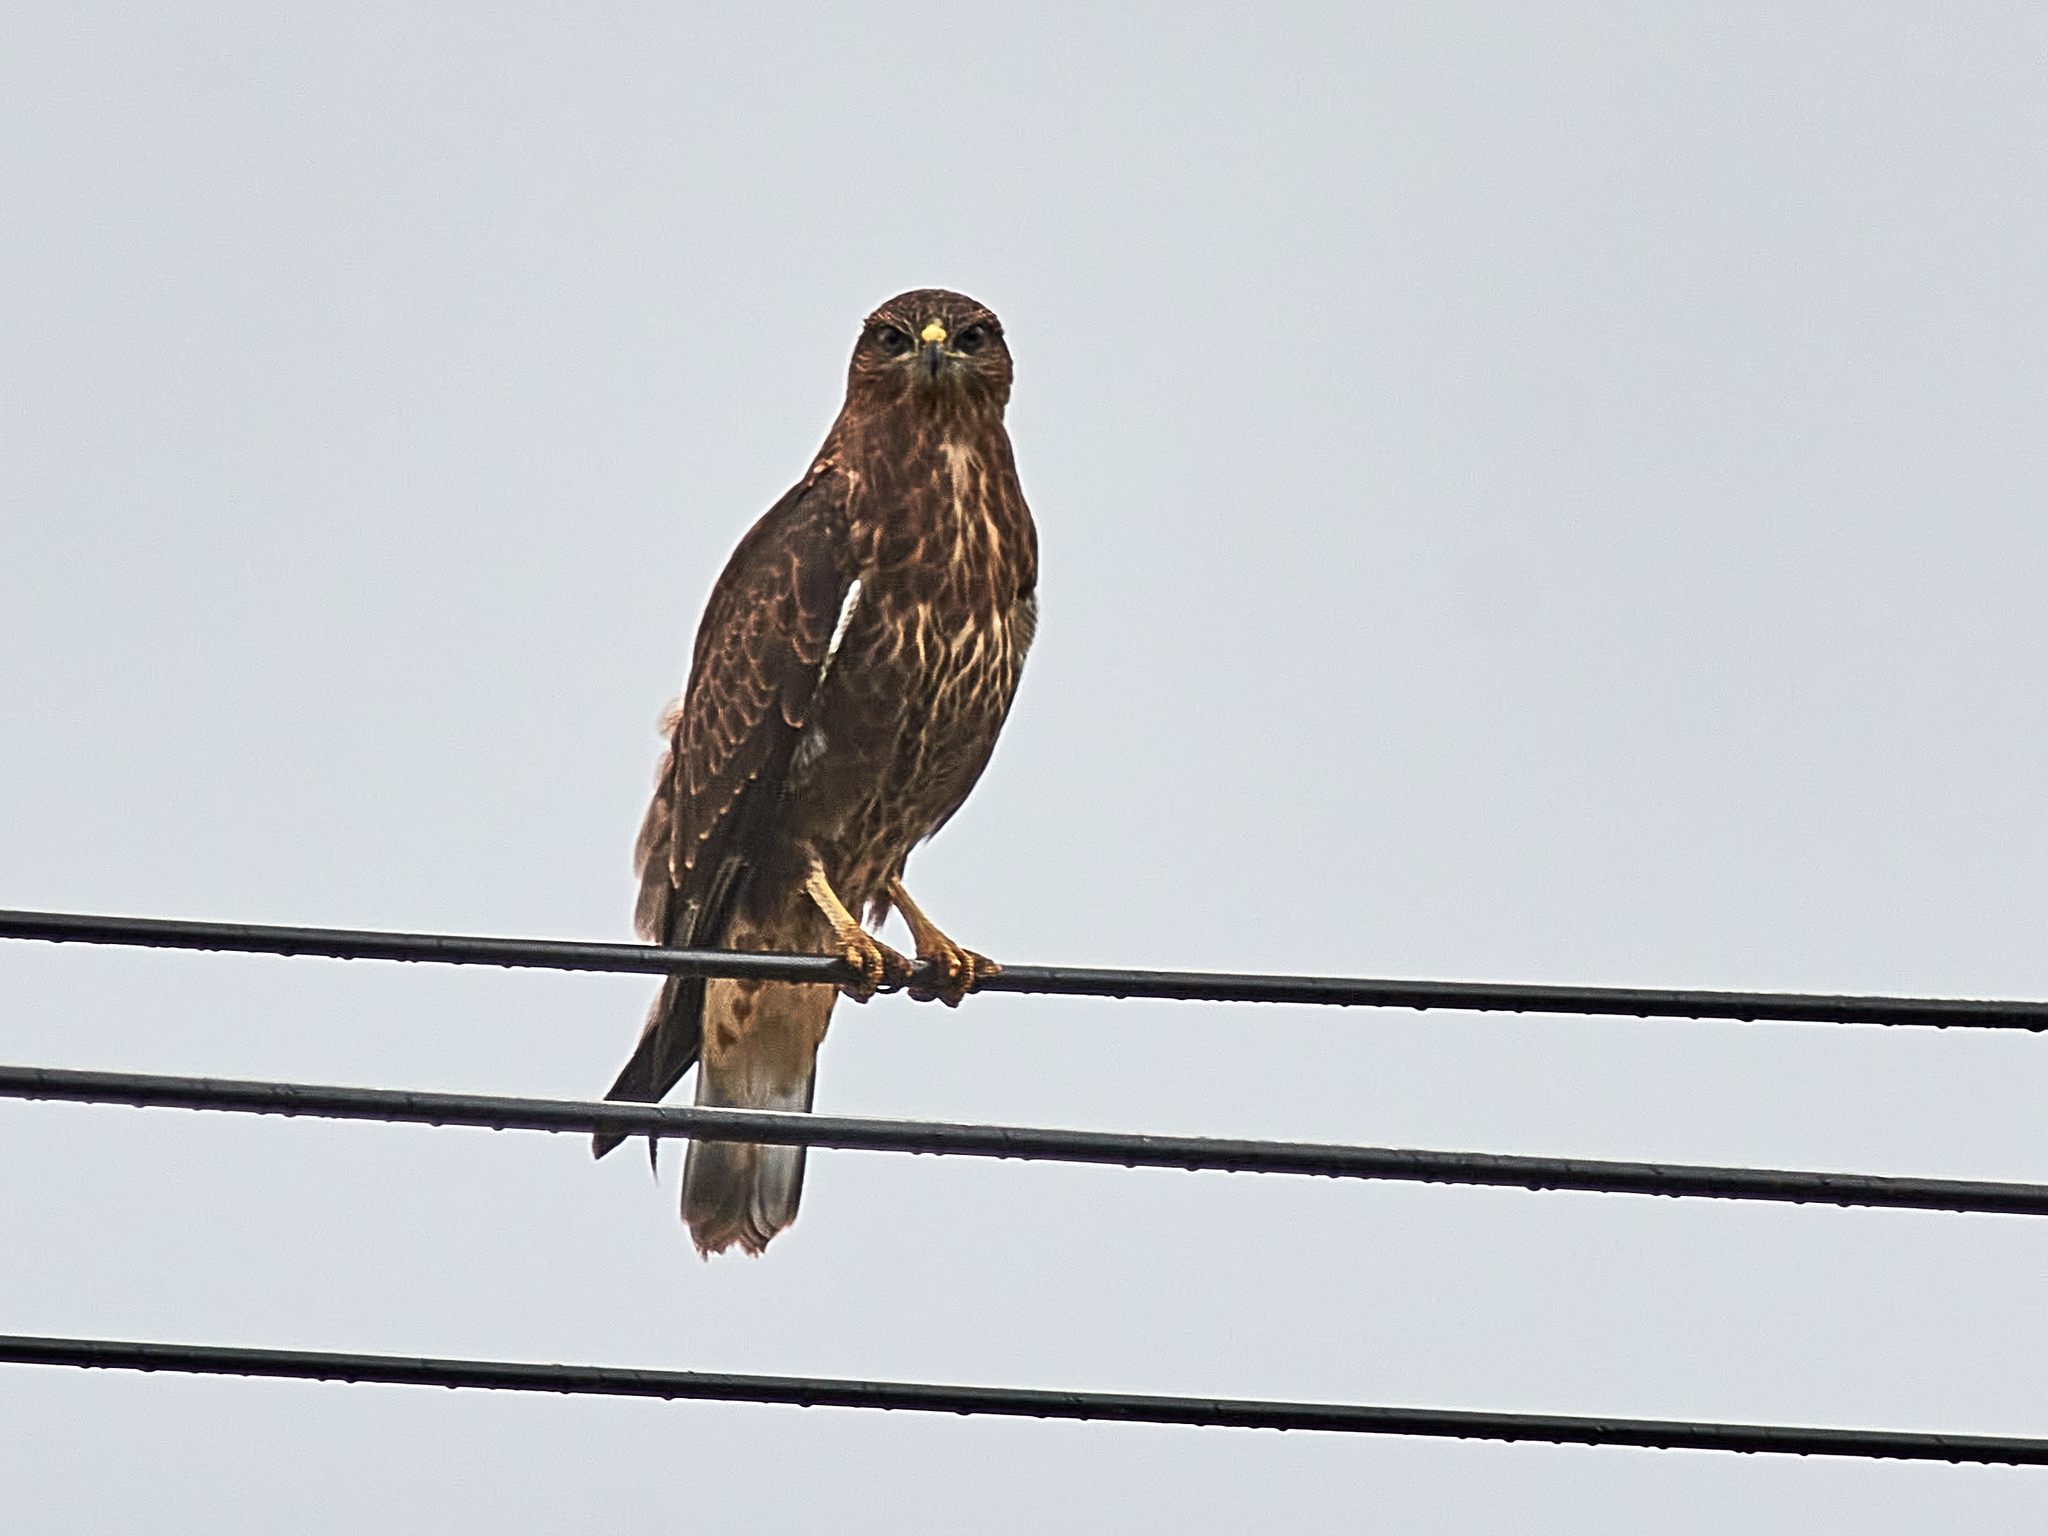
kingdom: Animalia
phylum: Chordata
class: Aves
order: Accipitriformes
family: Accipitridae
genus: Buteo
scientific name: Buteo buteo
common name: Common buzzard
